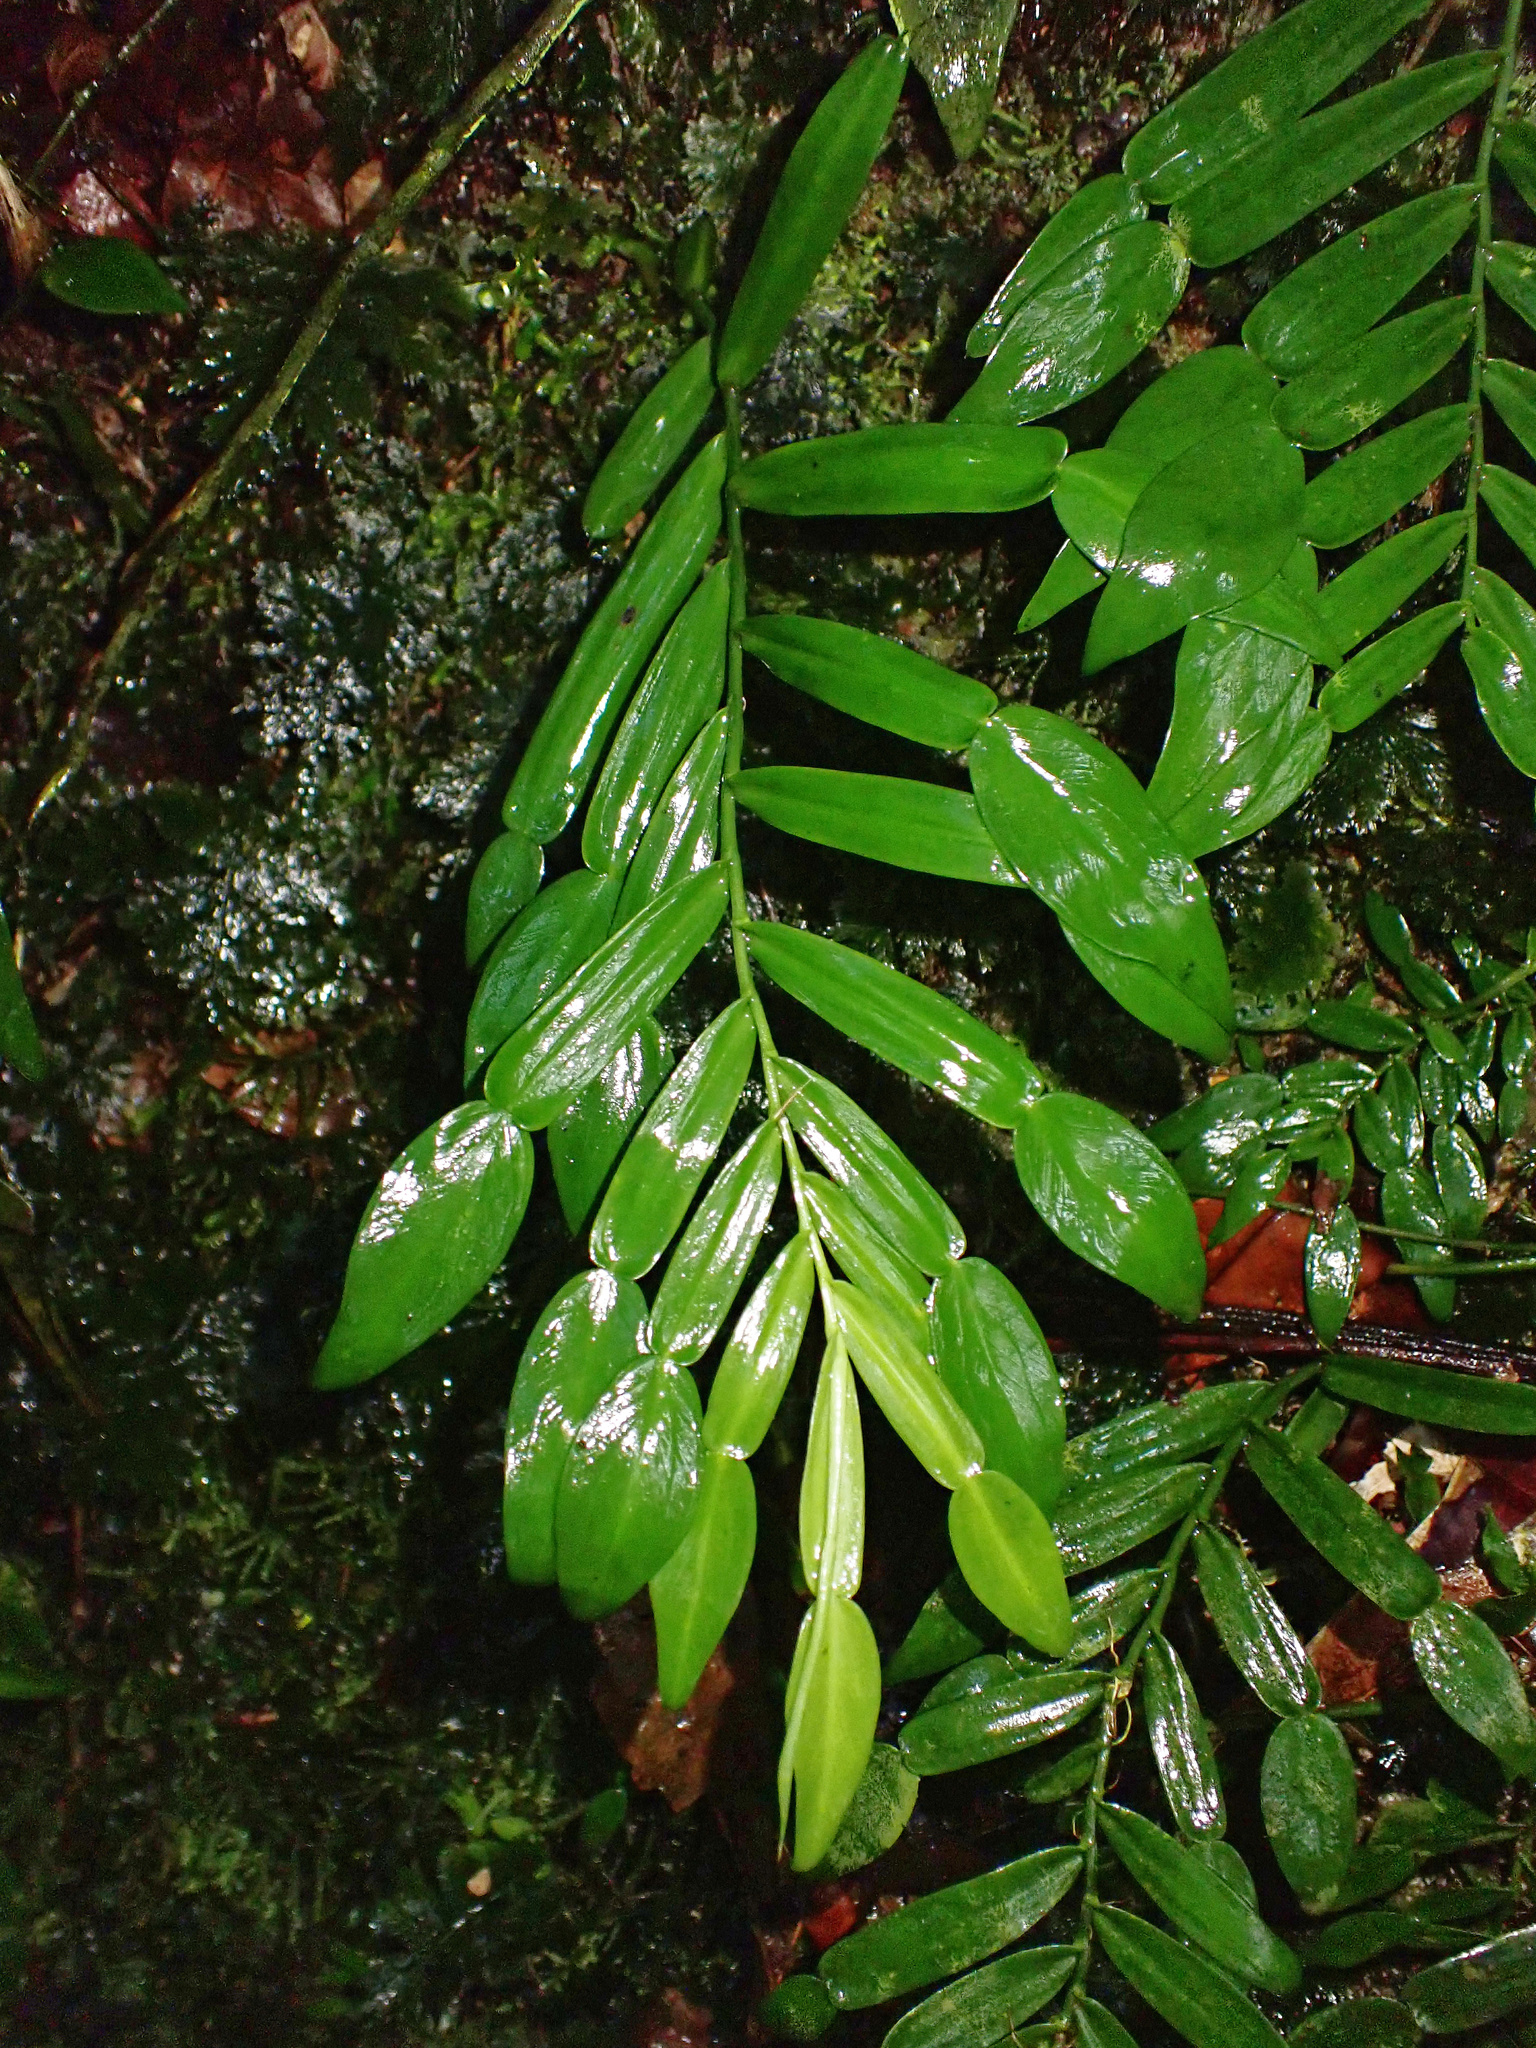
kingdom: Plantae
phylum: Tracheophyta
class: Liliopsida
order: Alismatales
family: Araceae
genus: Pothos
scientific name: Pothos longipes
